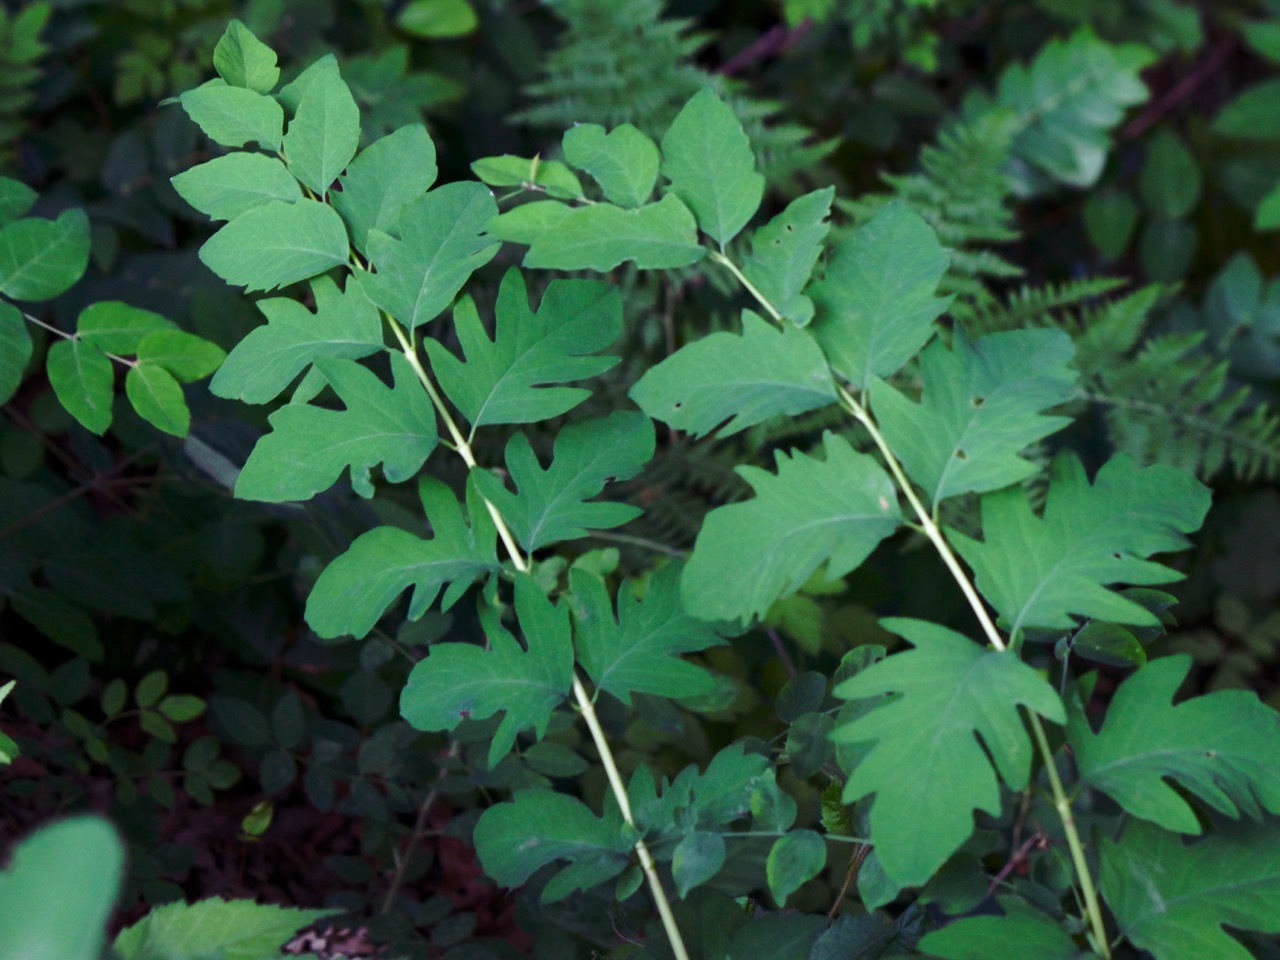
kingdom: Plantae
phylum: Tracheophyta
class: Magnoliopsida
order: Dipsacales
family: Caprifoliaceae
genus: Symphoricarpos
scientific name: Symphoricarpos albus
